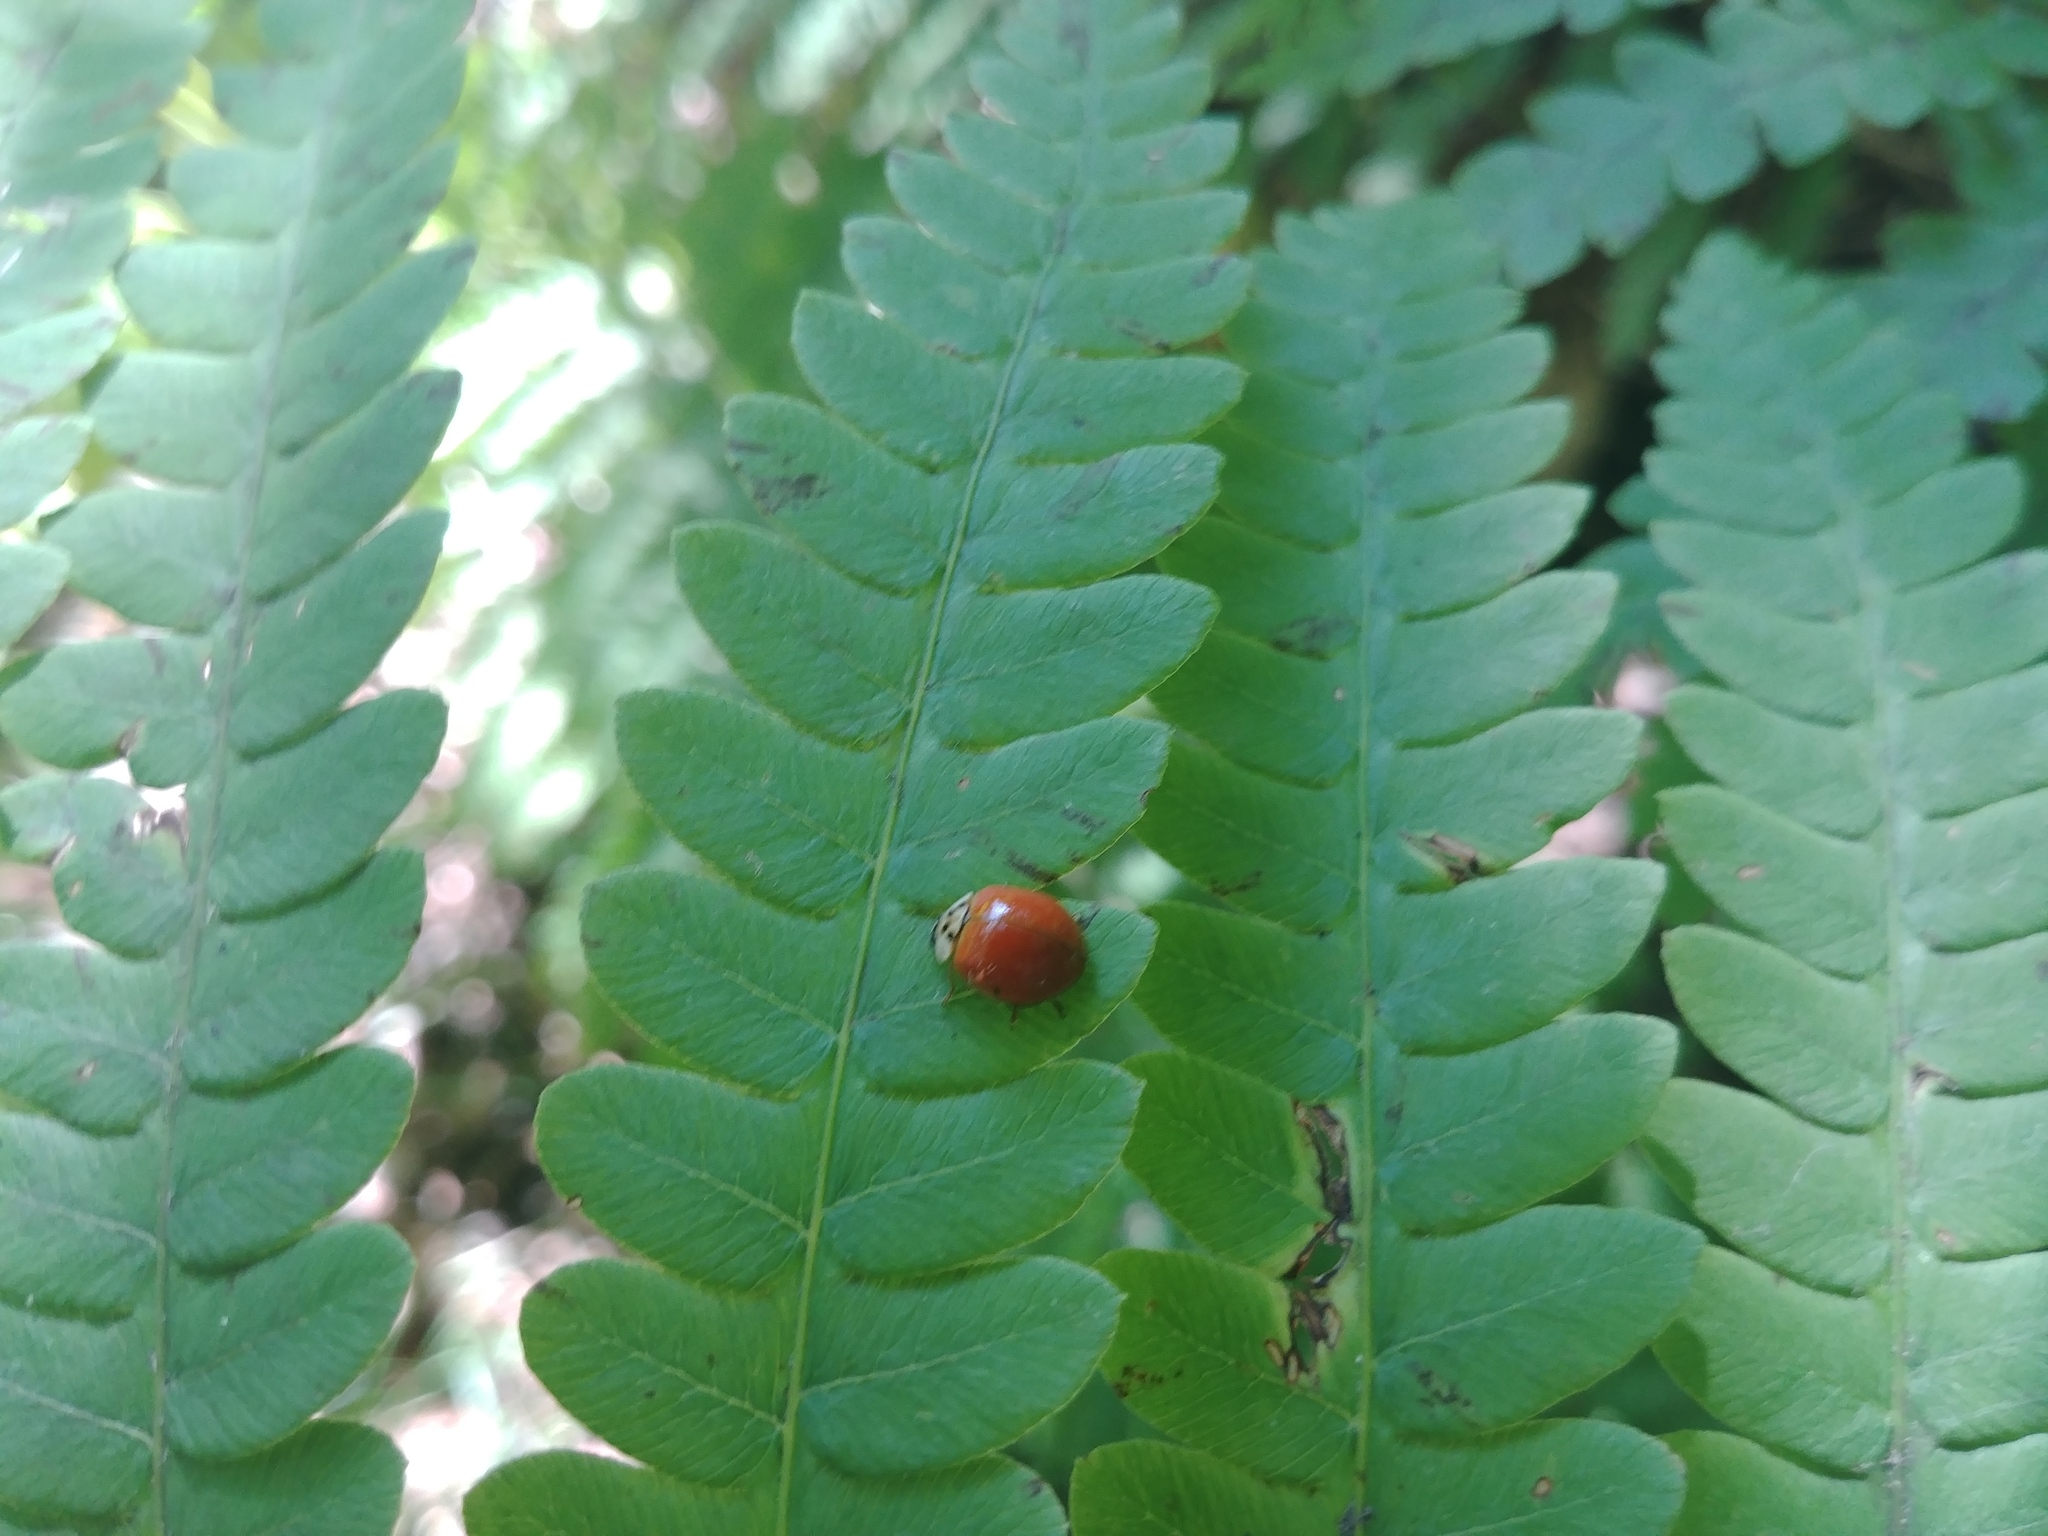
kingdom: Animalia
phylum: Arthropoda
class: Insecta
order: Coleoptera
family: Coccinellidae
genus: Harmonia
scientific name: Harmonia axyridis
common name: Harlequin ladybird
